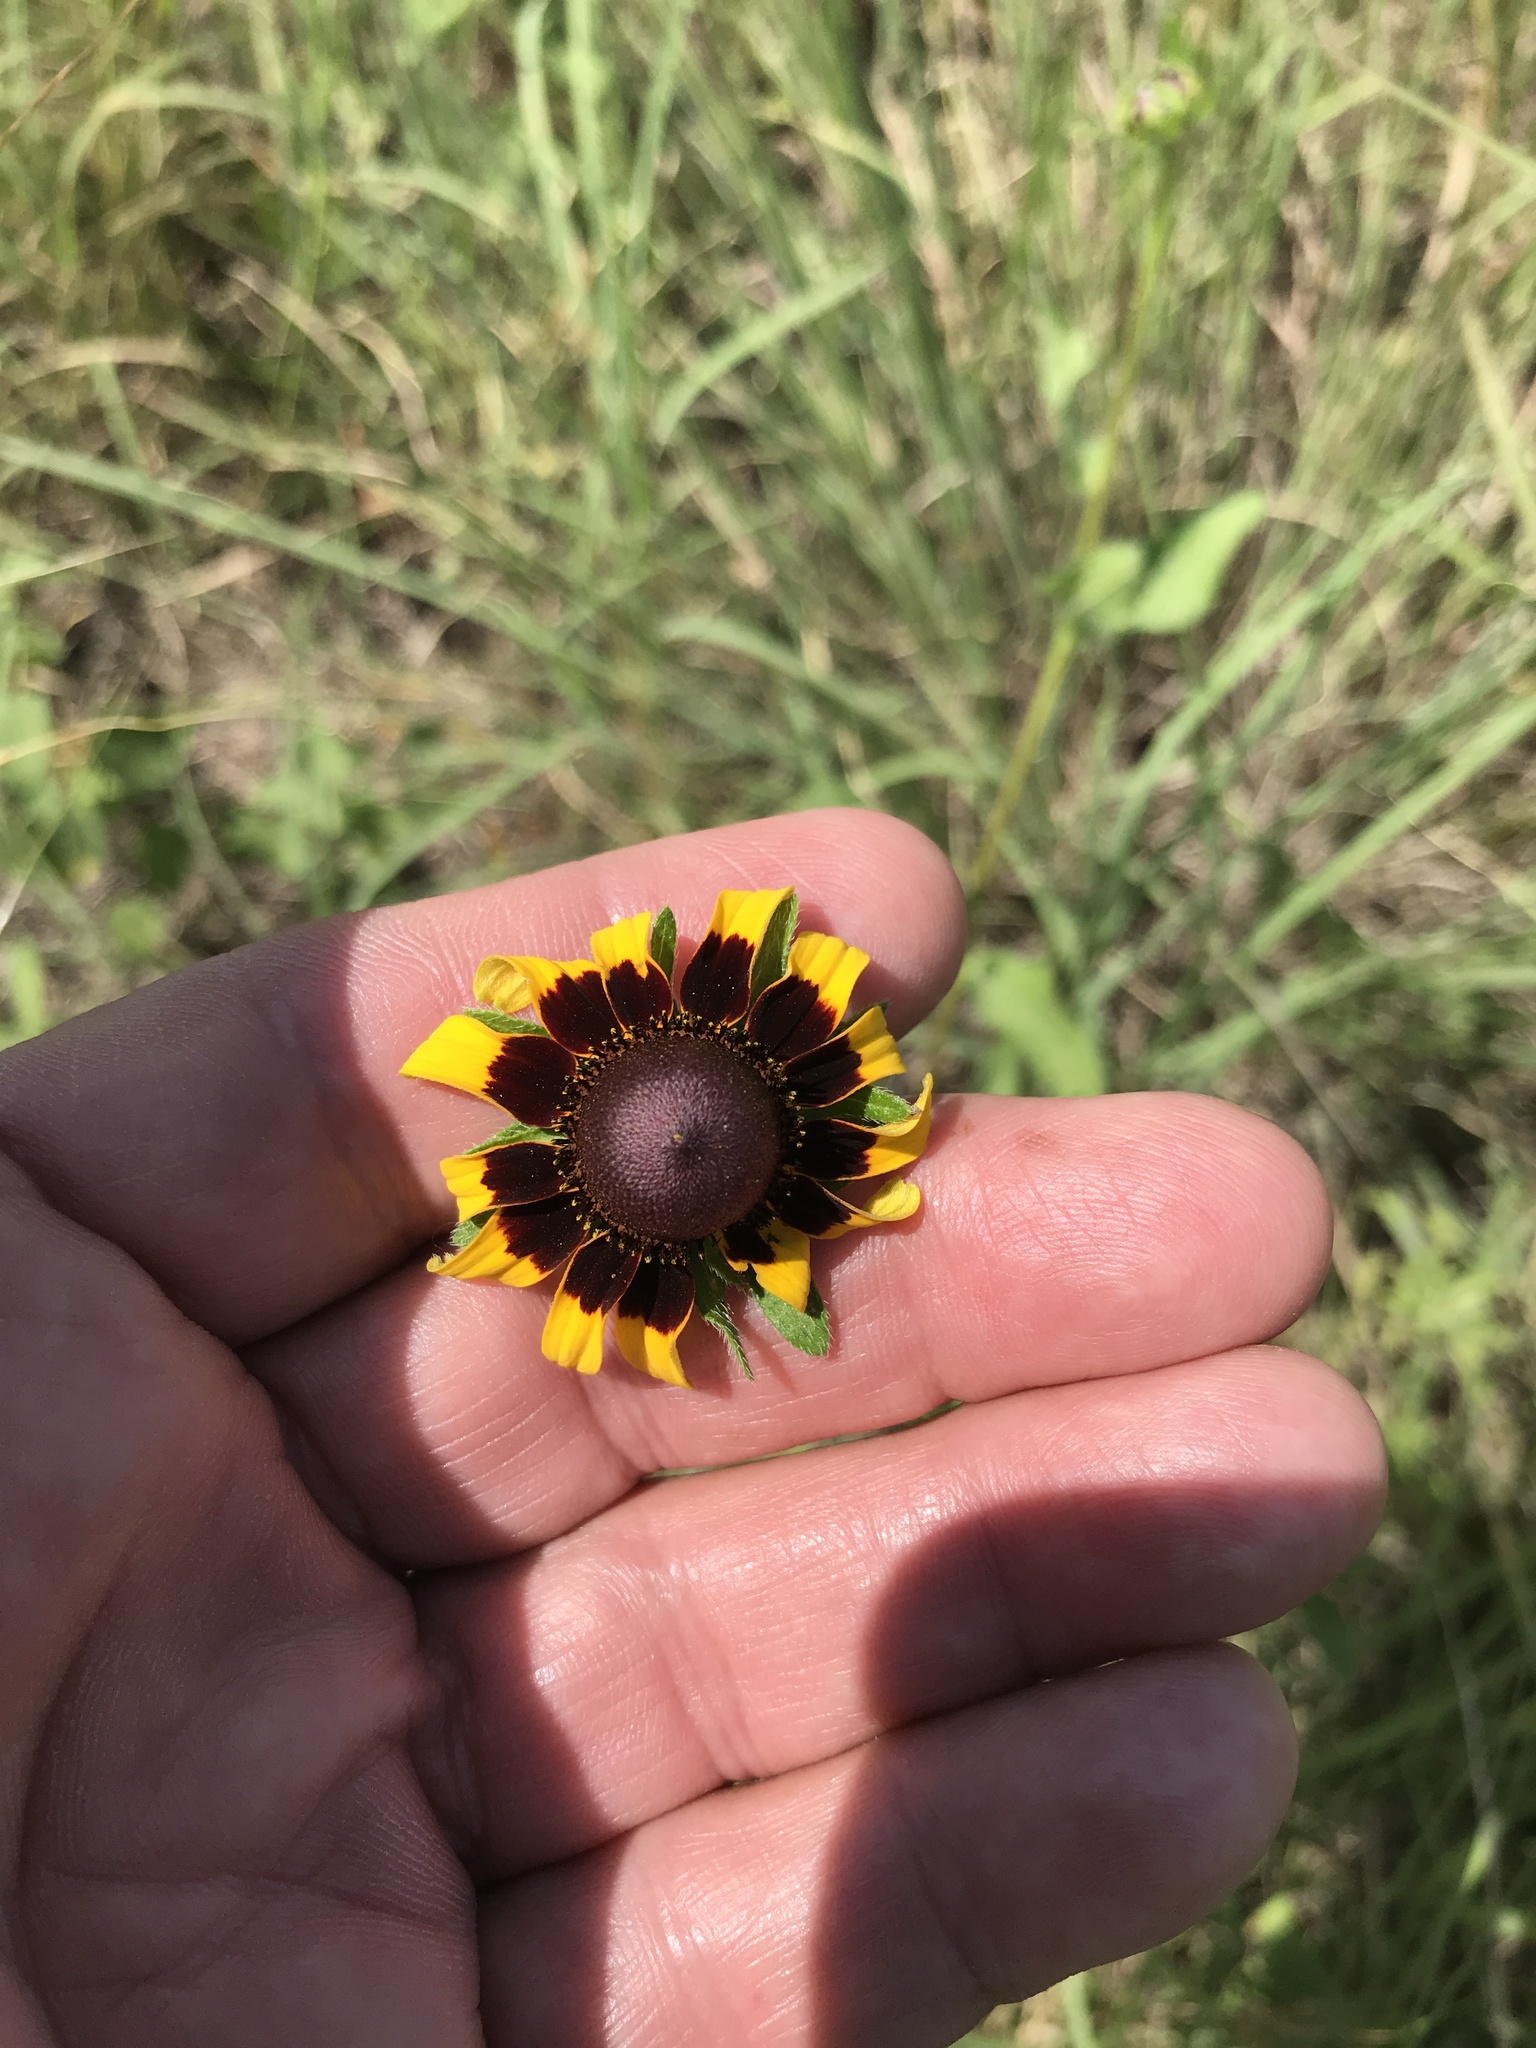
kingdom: Plantae
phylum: Tracheophyta
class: Magnoliopsida
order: Asterales
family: Asteraceae
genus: Rudbeckia
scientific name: Rudbeckia hirta
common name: Black-eyed-susan
